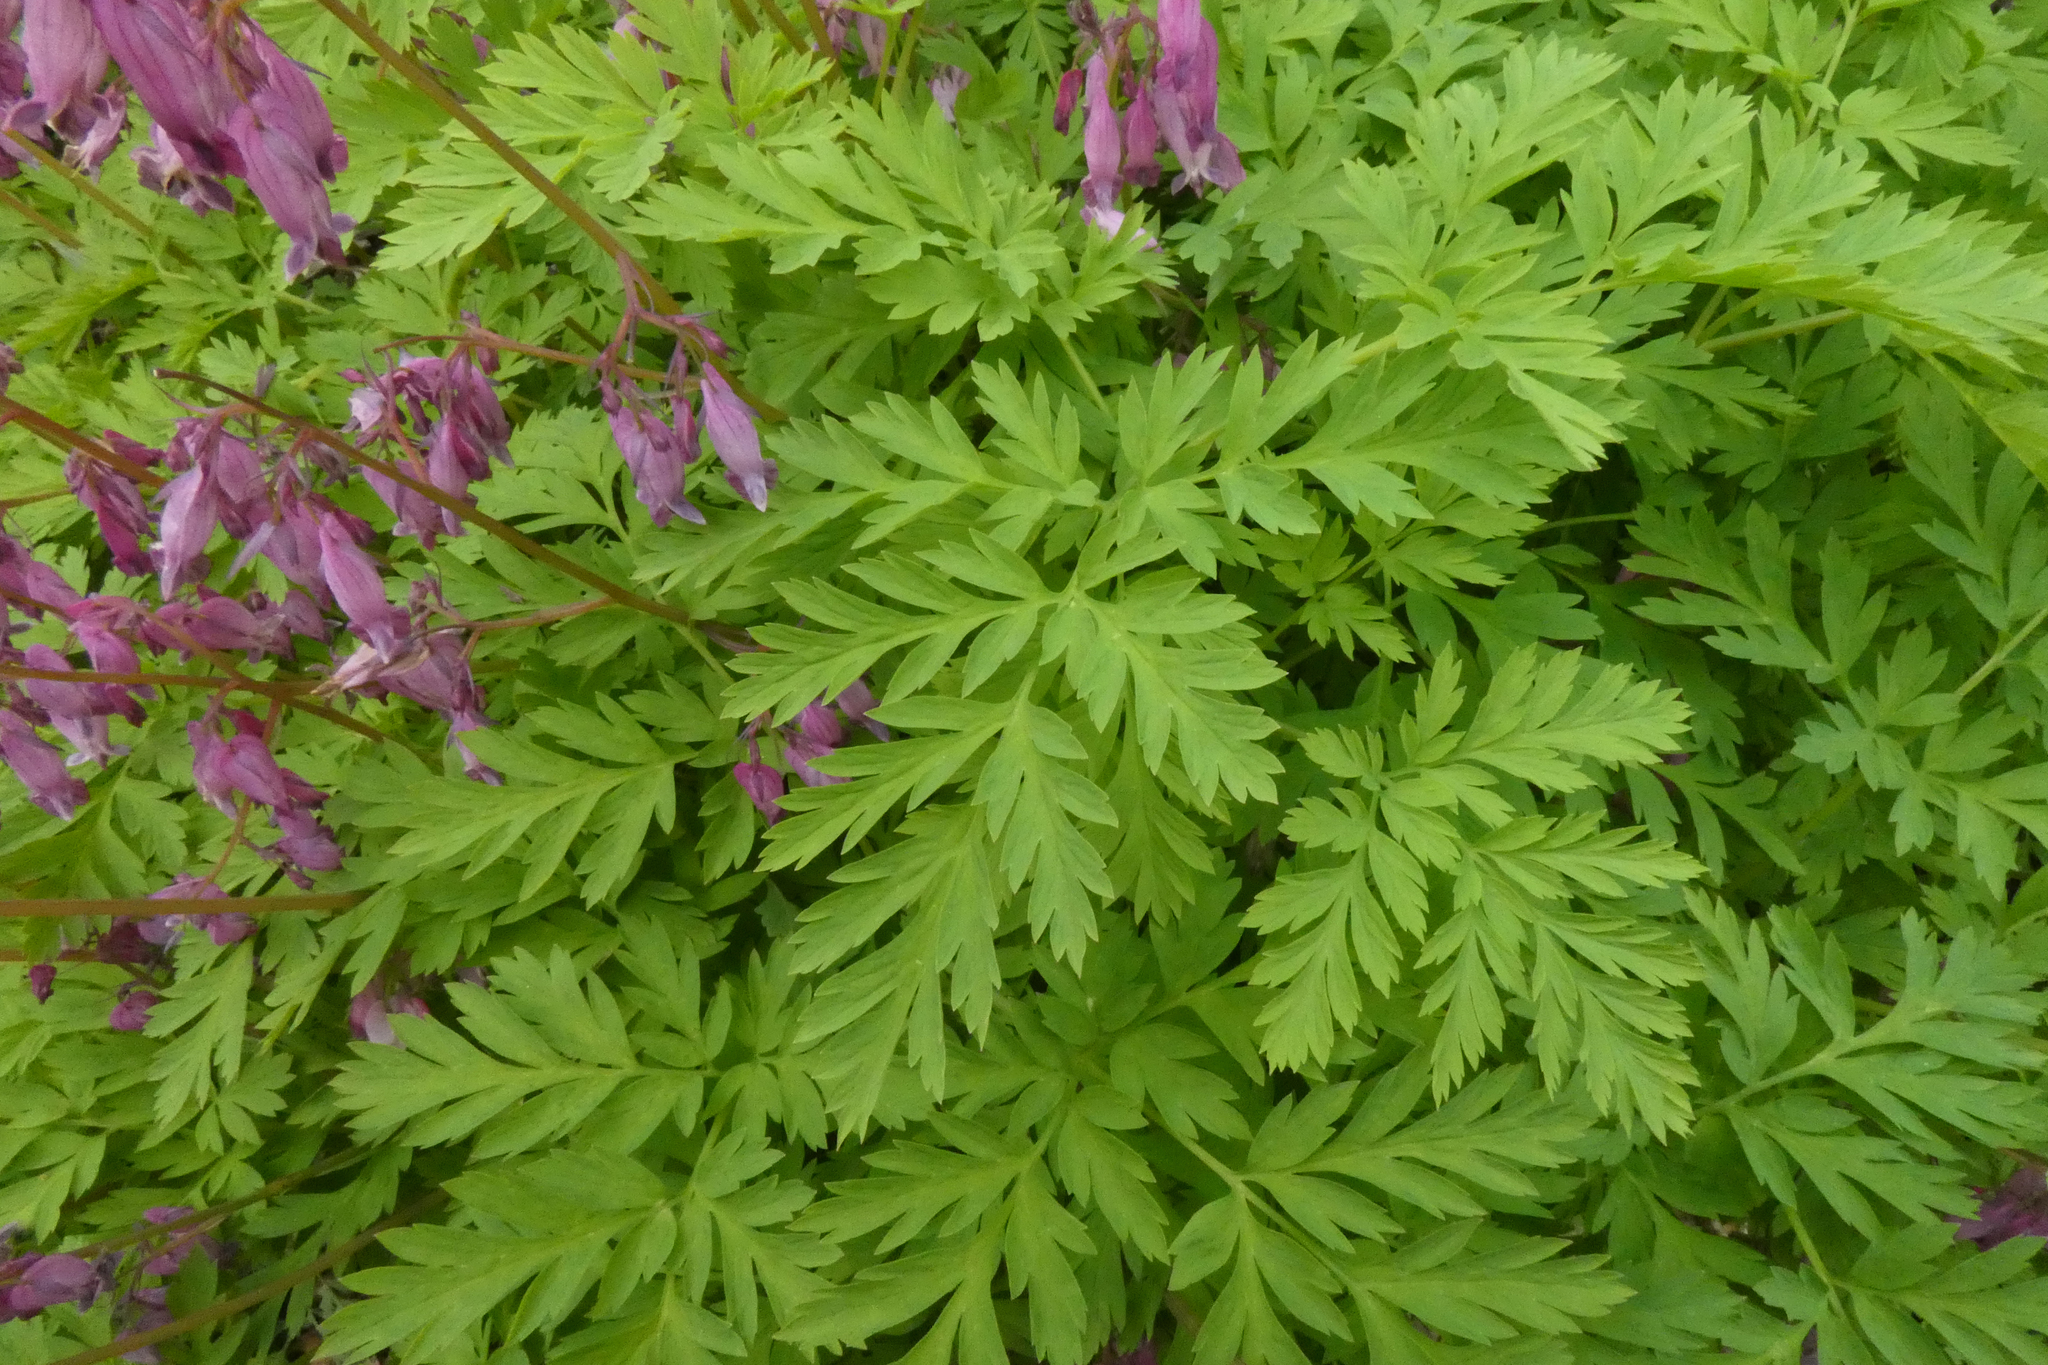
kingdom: Plantae
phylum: Tracheophyta
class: Magnoliopsida
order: Ranunculales
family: Papaveraceae
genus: Dicentra
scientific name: Dicentra formosa
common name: Bleeding-heart
